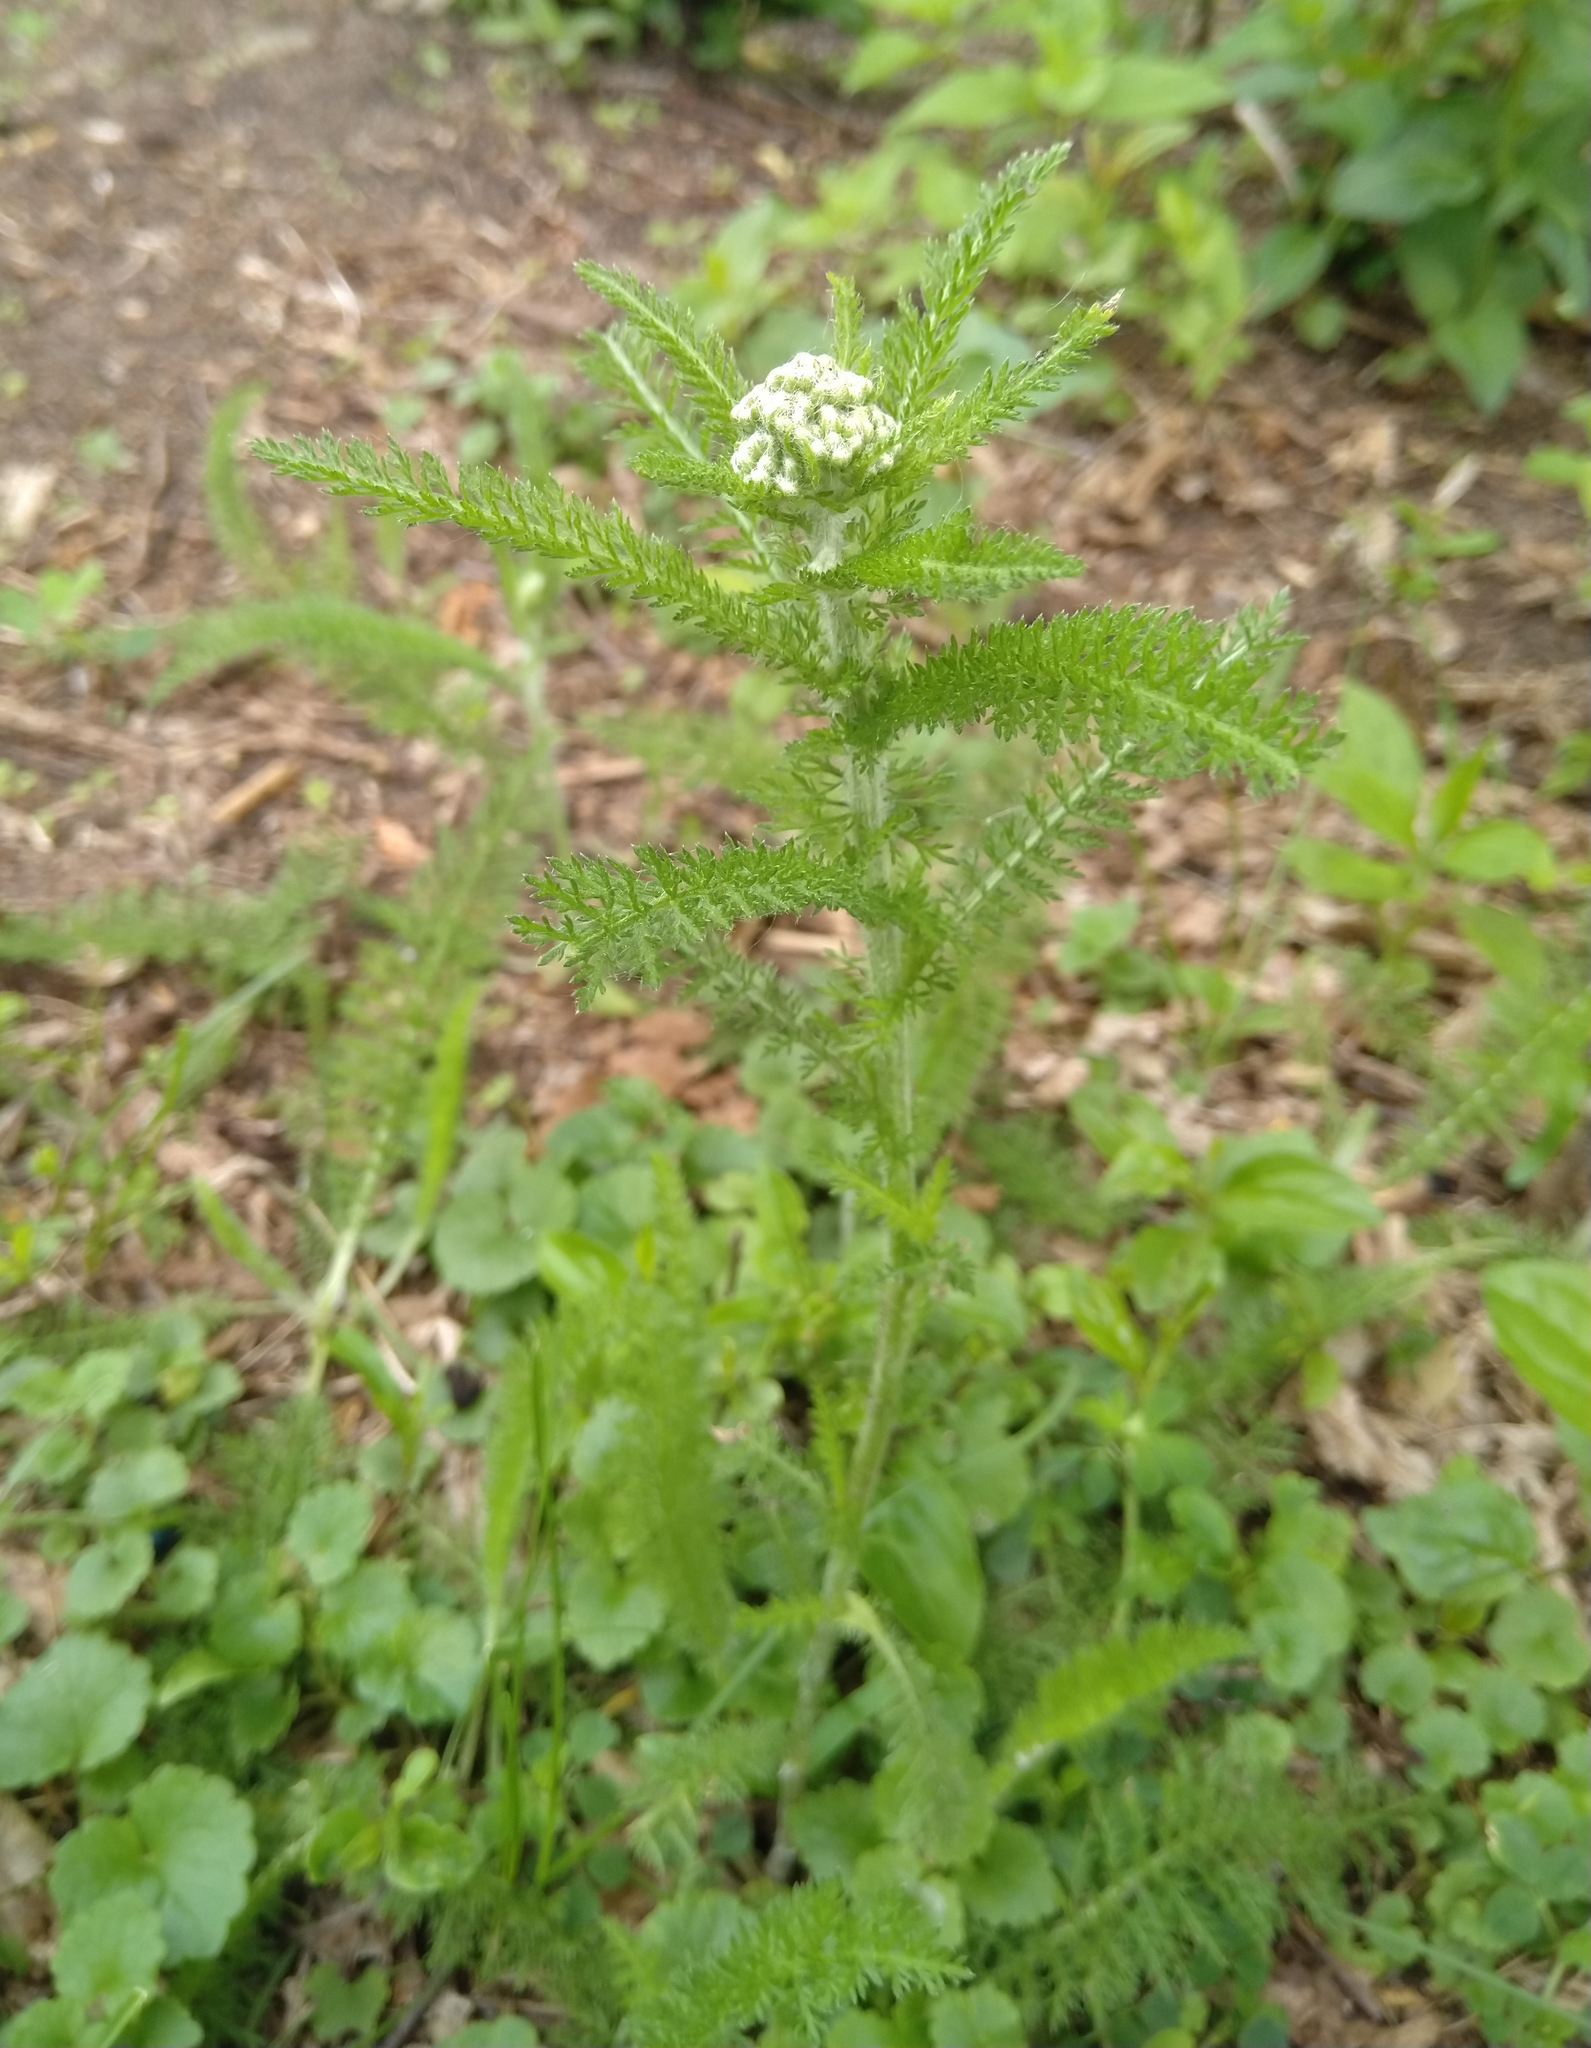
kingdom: Plantae
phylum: Tracheophyta
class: Magnoliopsida
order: Asterales
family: Asteraceae
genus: Achillea
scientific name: Achillea millefolium
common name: Yarrow
